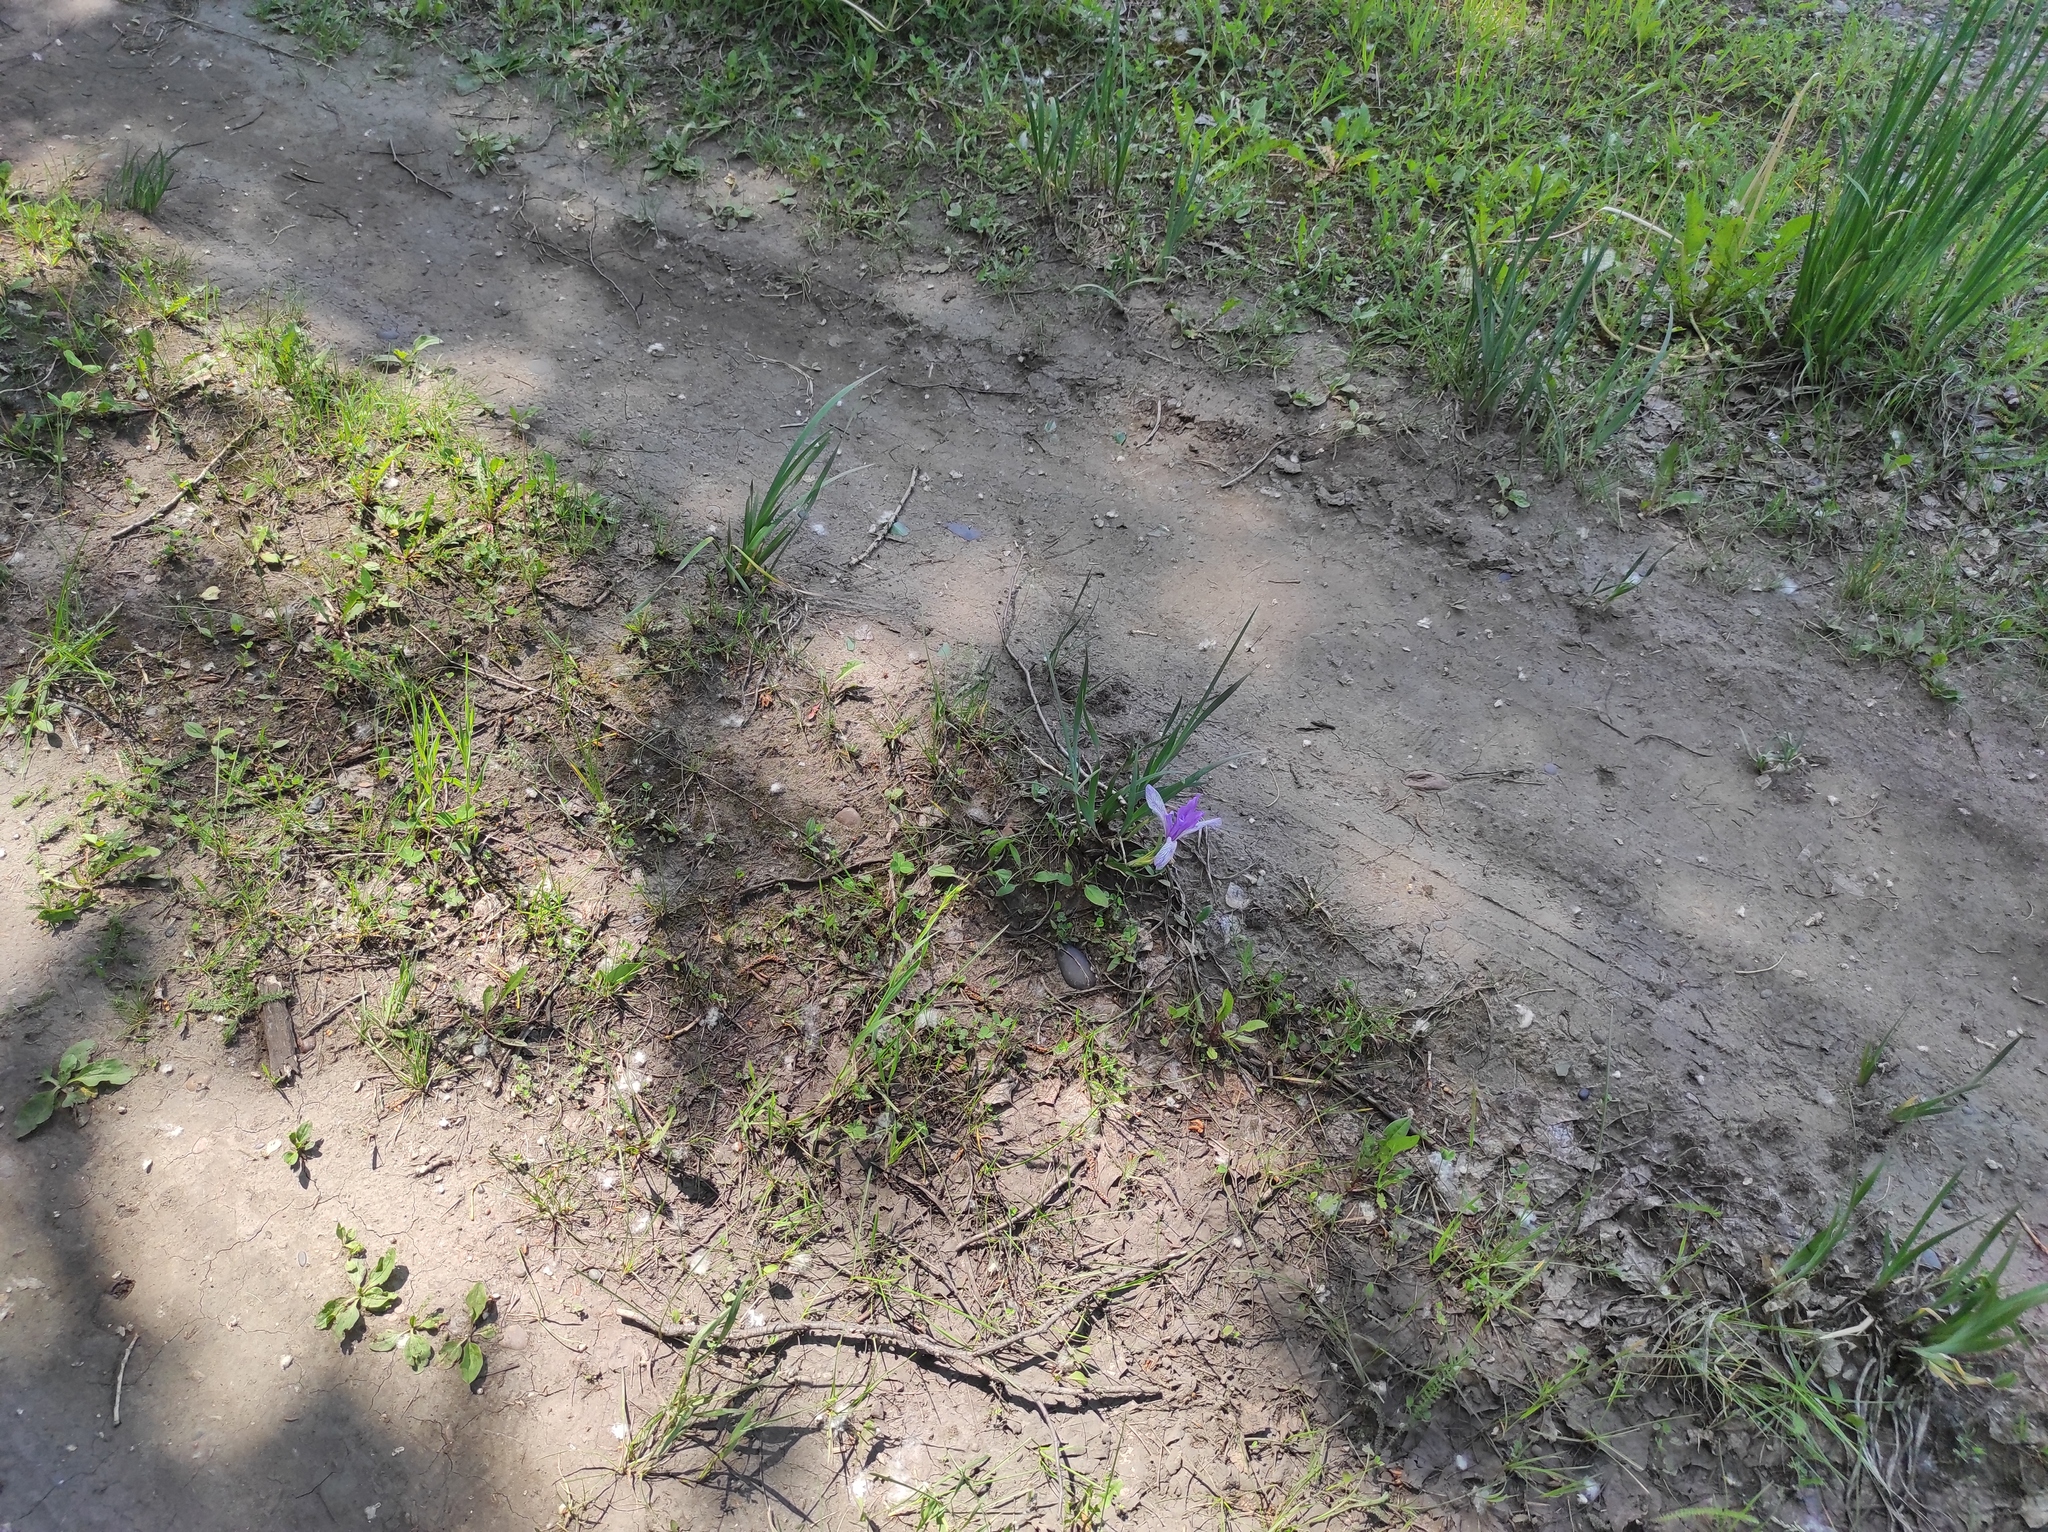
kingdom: Plantae
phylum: Tracheophyta
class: Liliopsida
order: Asparagales
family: Iridaceae
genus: Iris
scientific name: Iris lactea
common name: White-flower chinese iris
